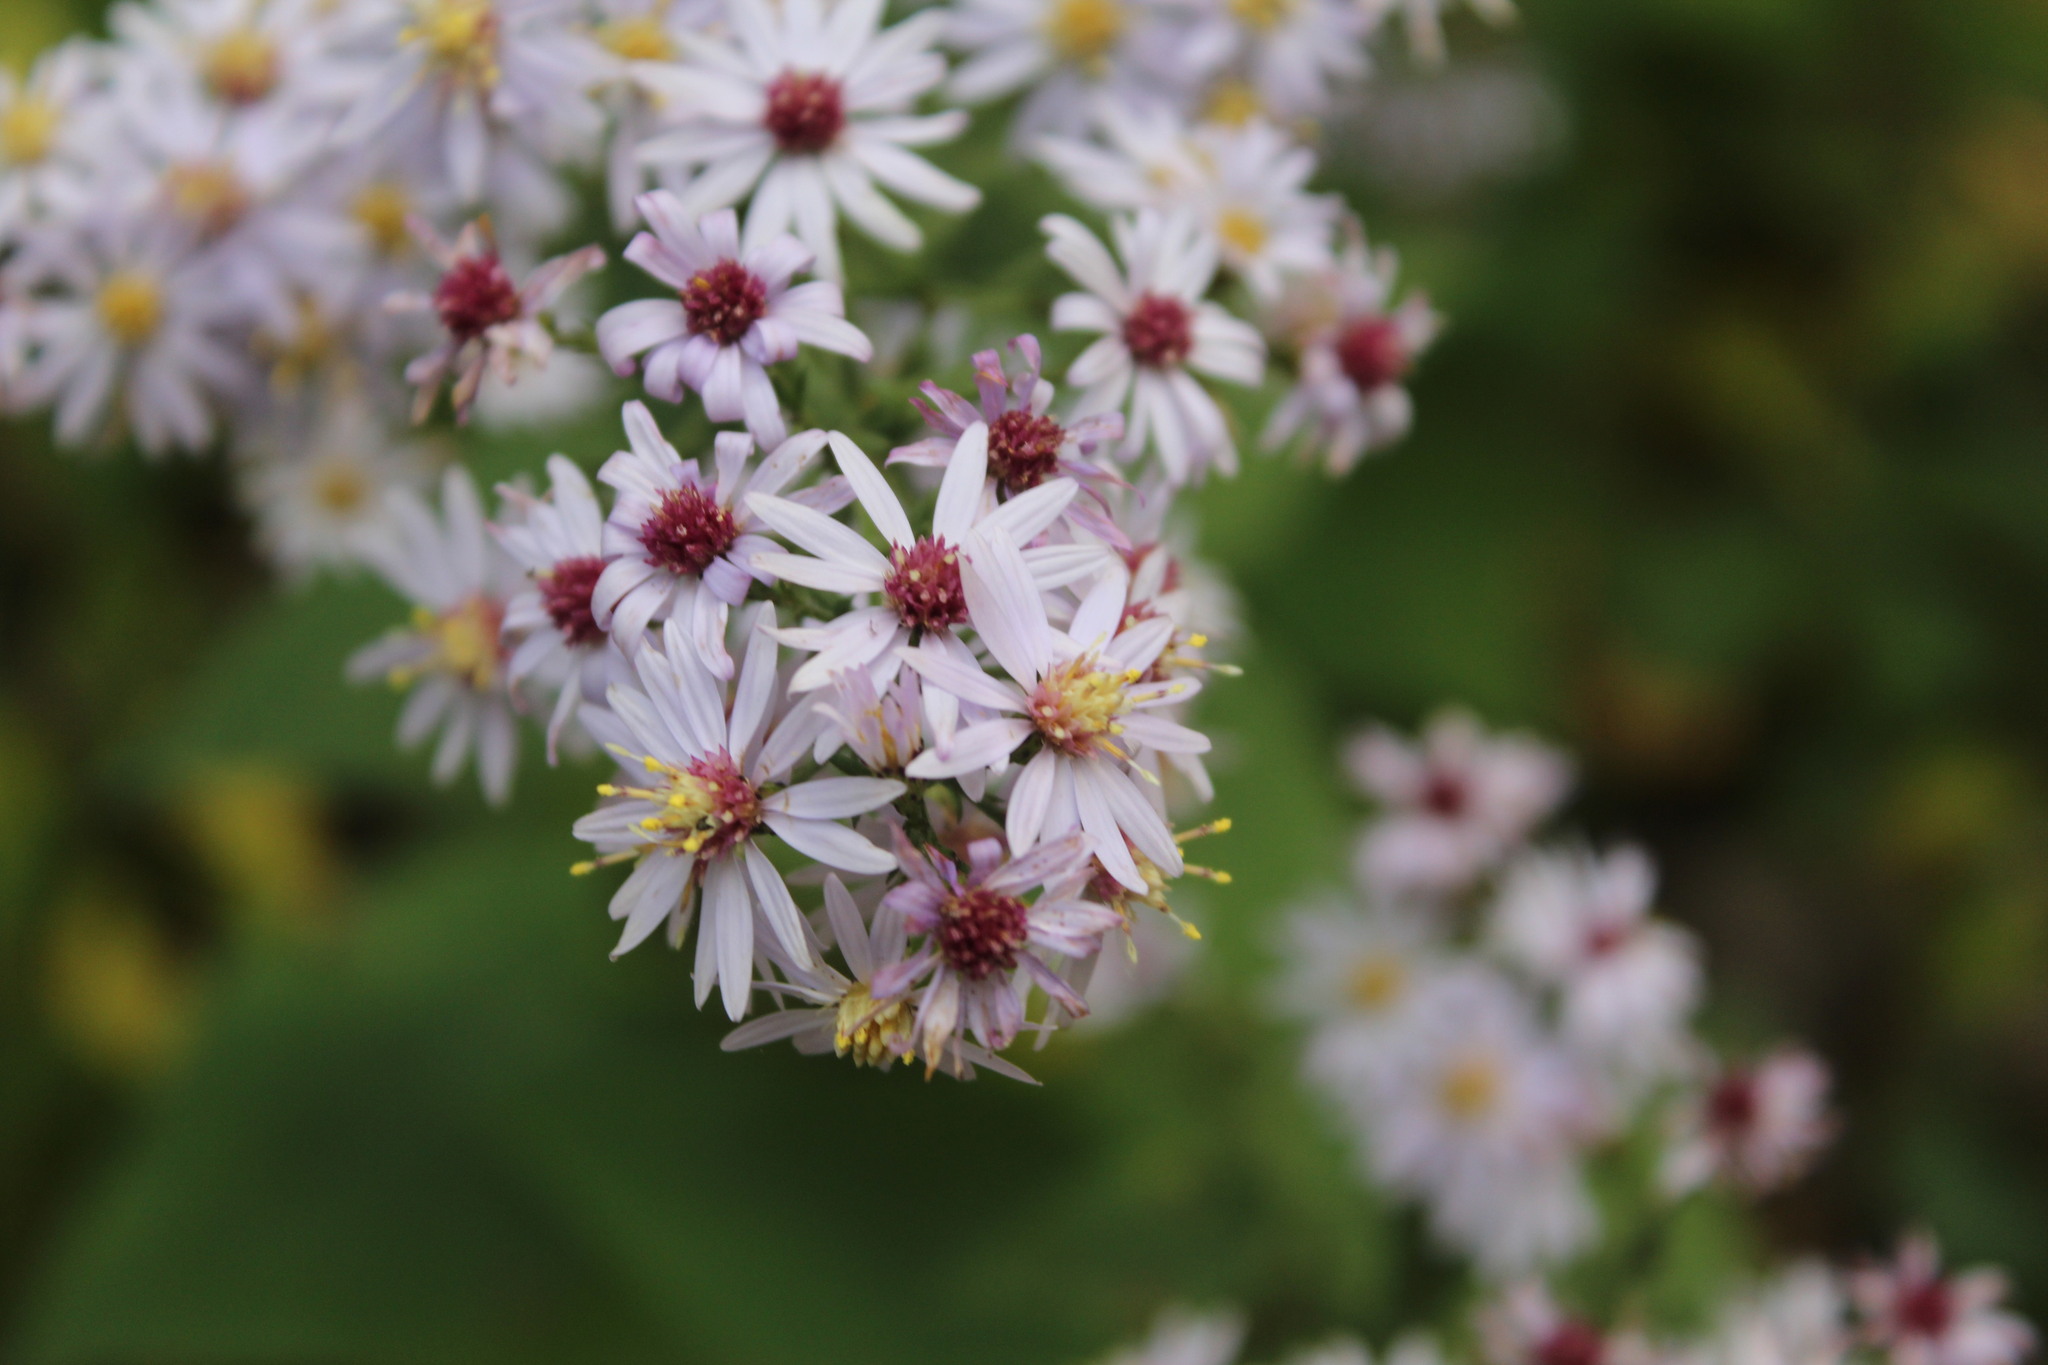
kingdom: Plantae
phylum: Tracheophyta
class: Magnoliopsida
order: Asterales
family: Asteraceae
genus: Symphyotrichum
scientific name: Symphyotrichum cordifolium
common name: Beeweed
